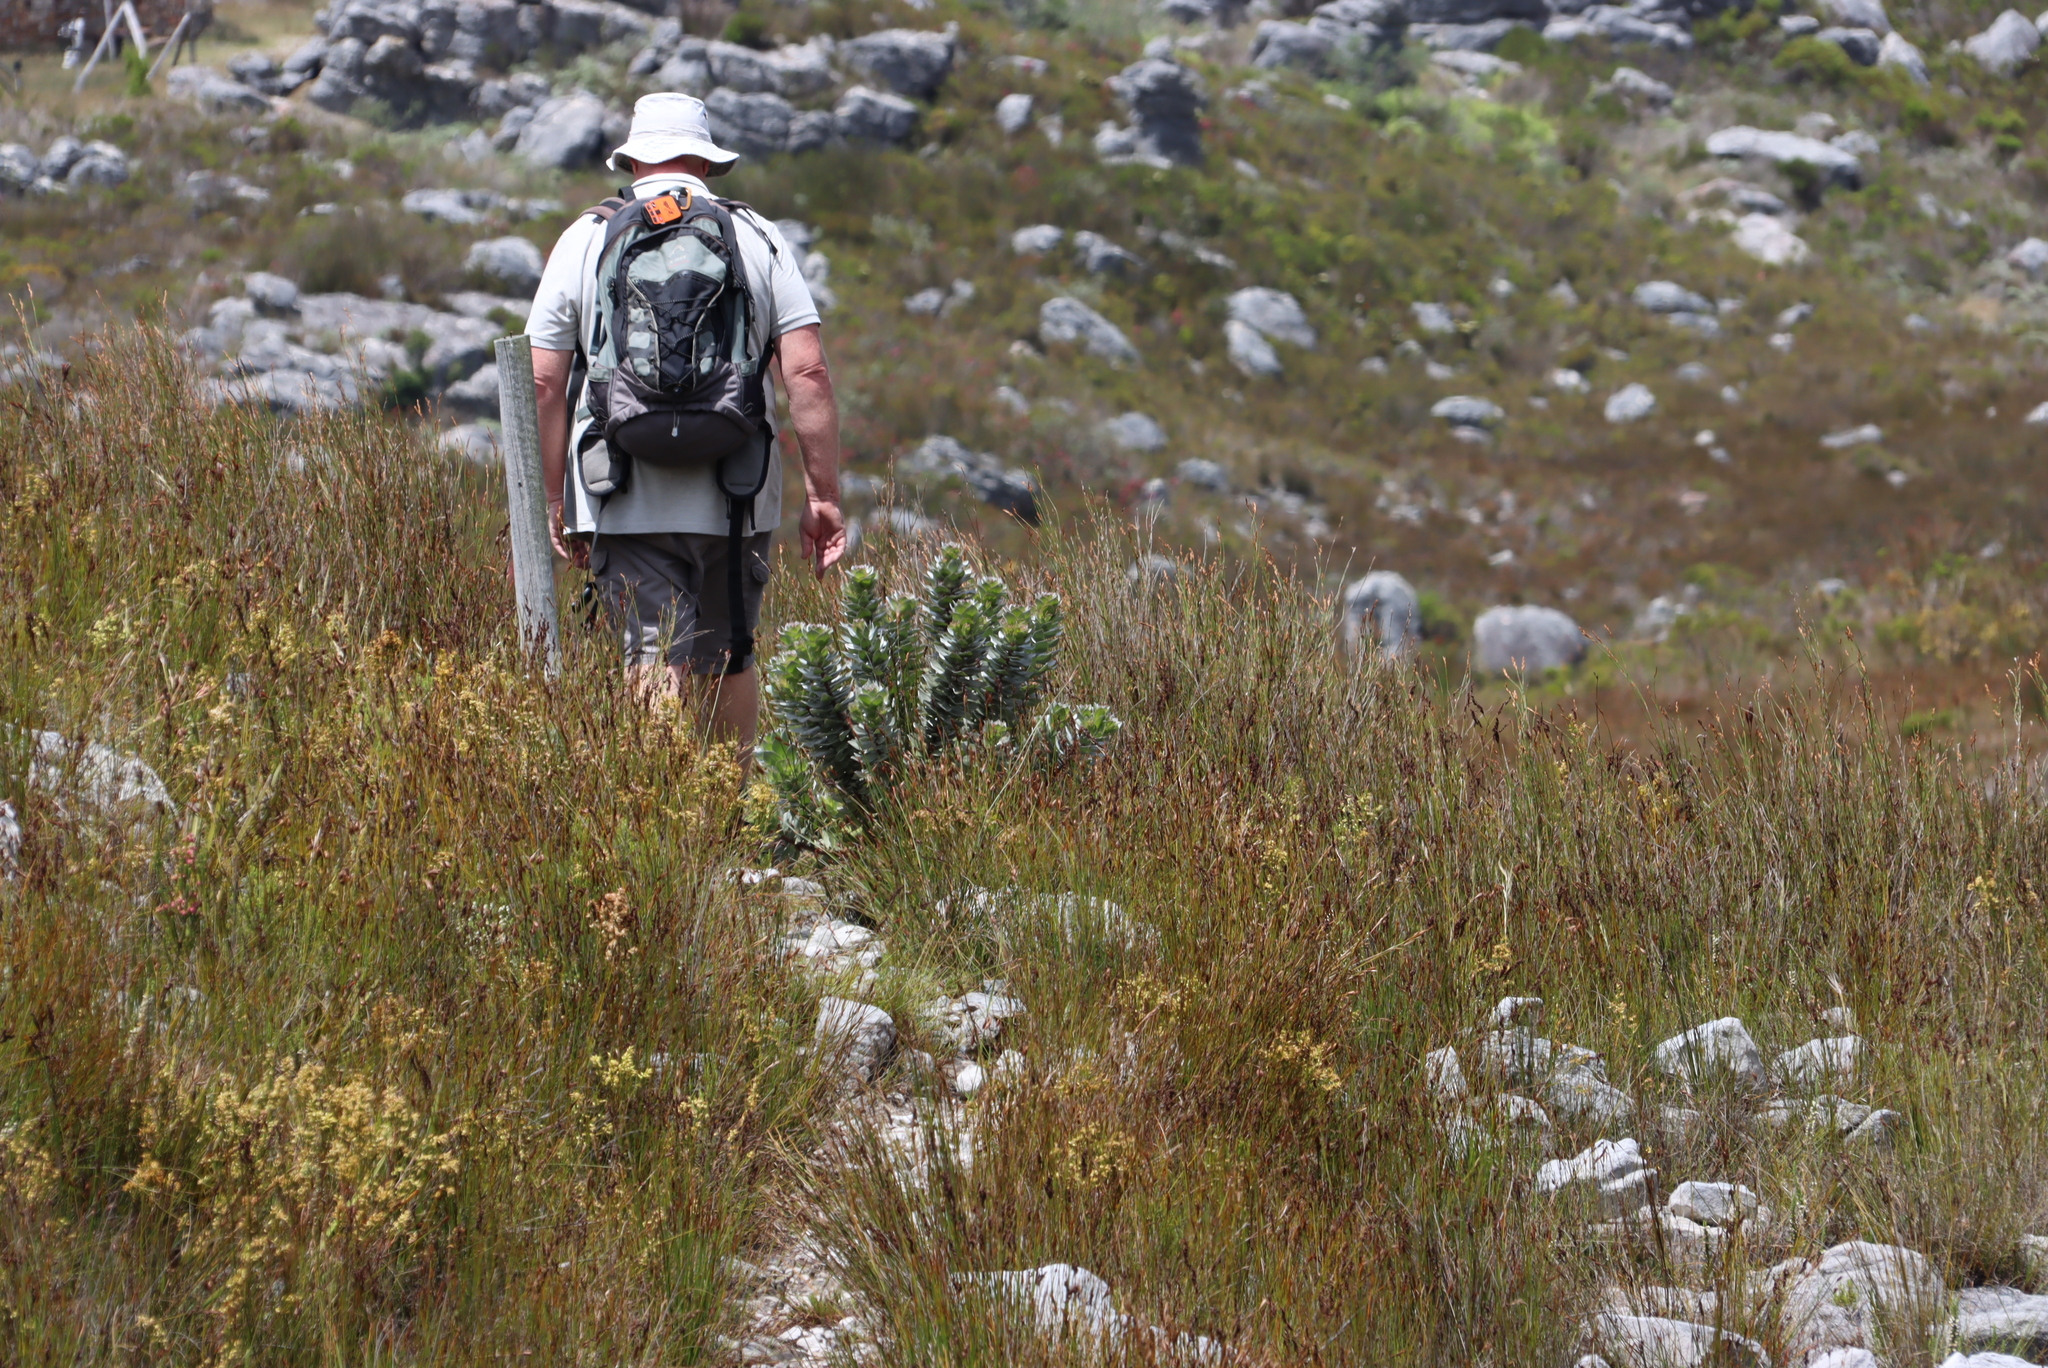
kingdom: Plantae
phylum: Tracheophyta
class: Magnoliopsida
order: Proteales
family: Proteaceae
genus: Mimetes
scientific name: Mimetes argenteus
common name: Silver pagoda
